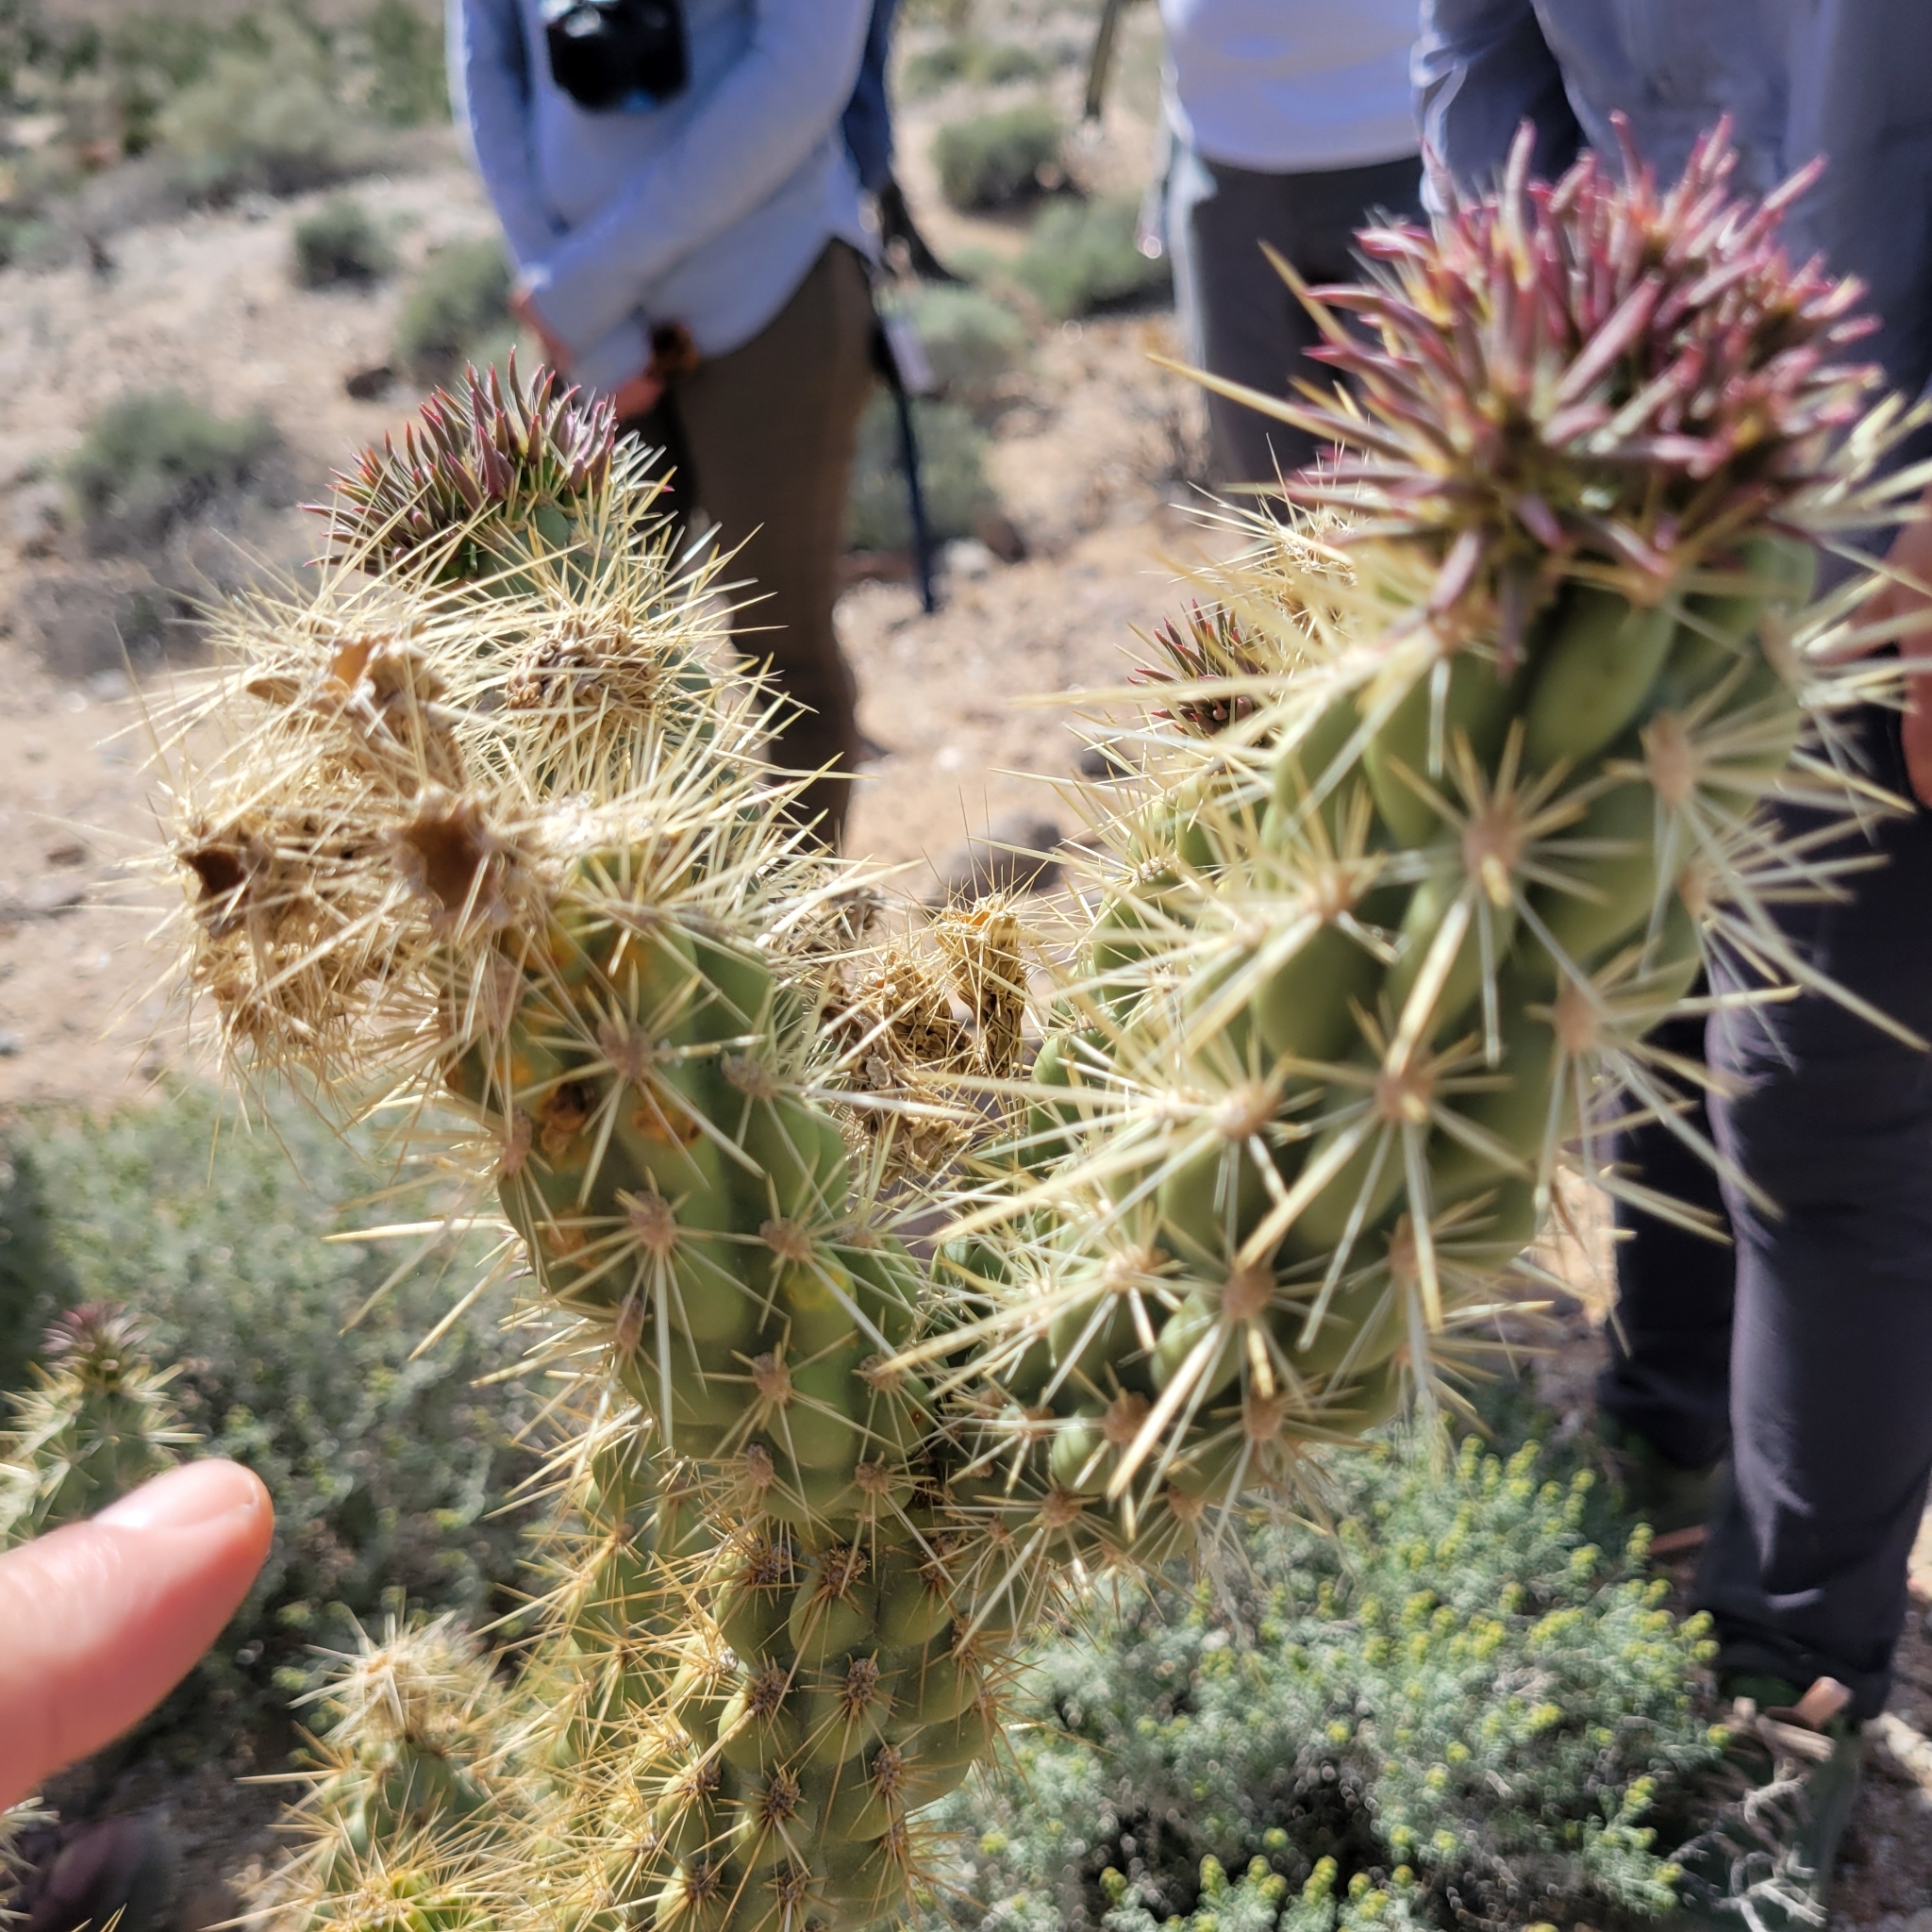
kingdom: Plantae
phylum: Tracheophyta
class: Magnoliopsida
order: Caryophyllales
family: Cactaceae
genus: Cylindropuntia
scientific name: Cylindropuntia wolfii
